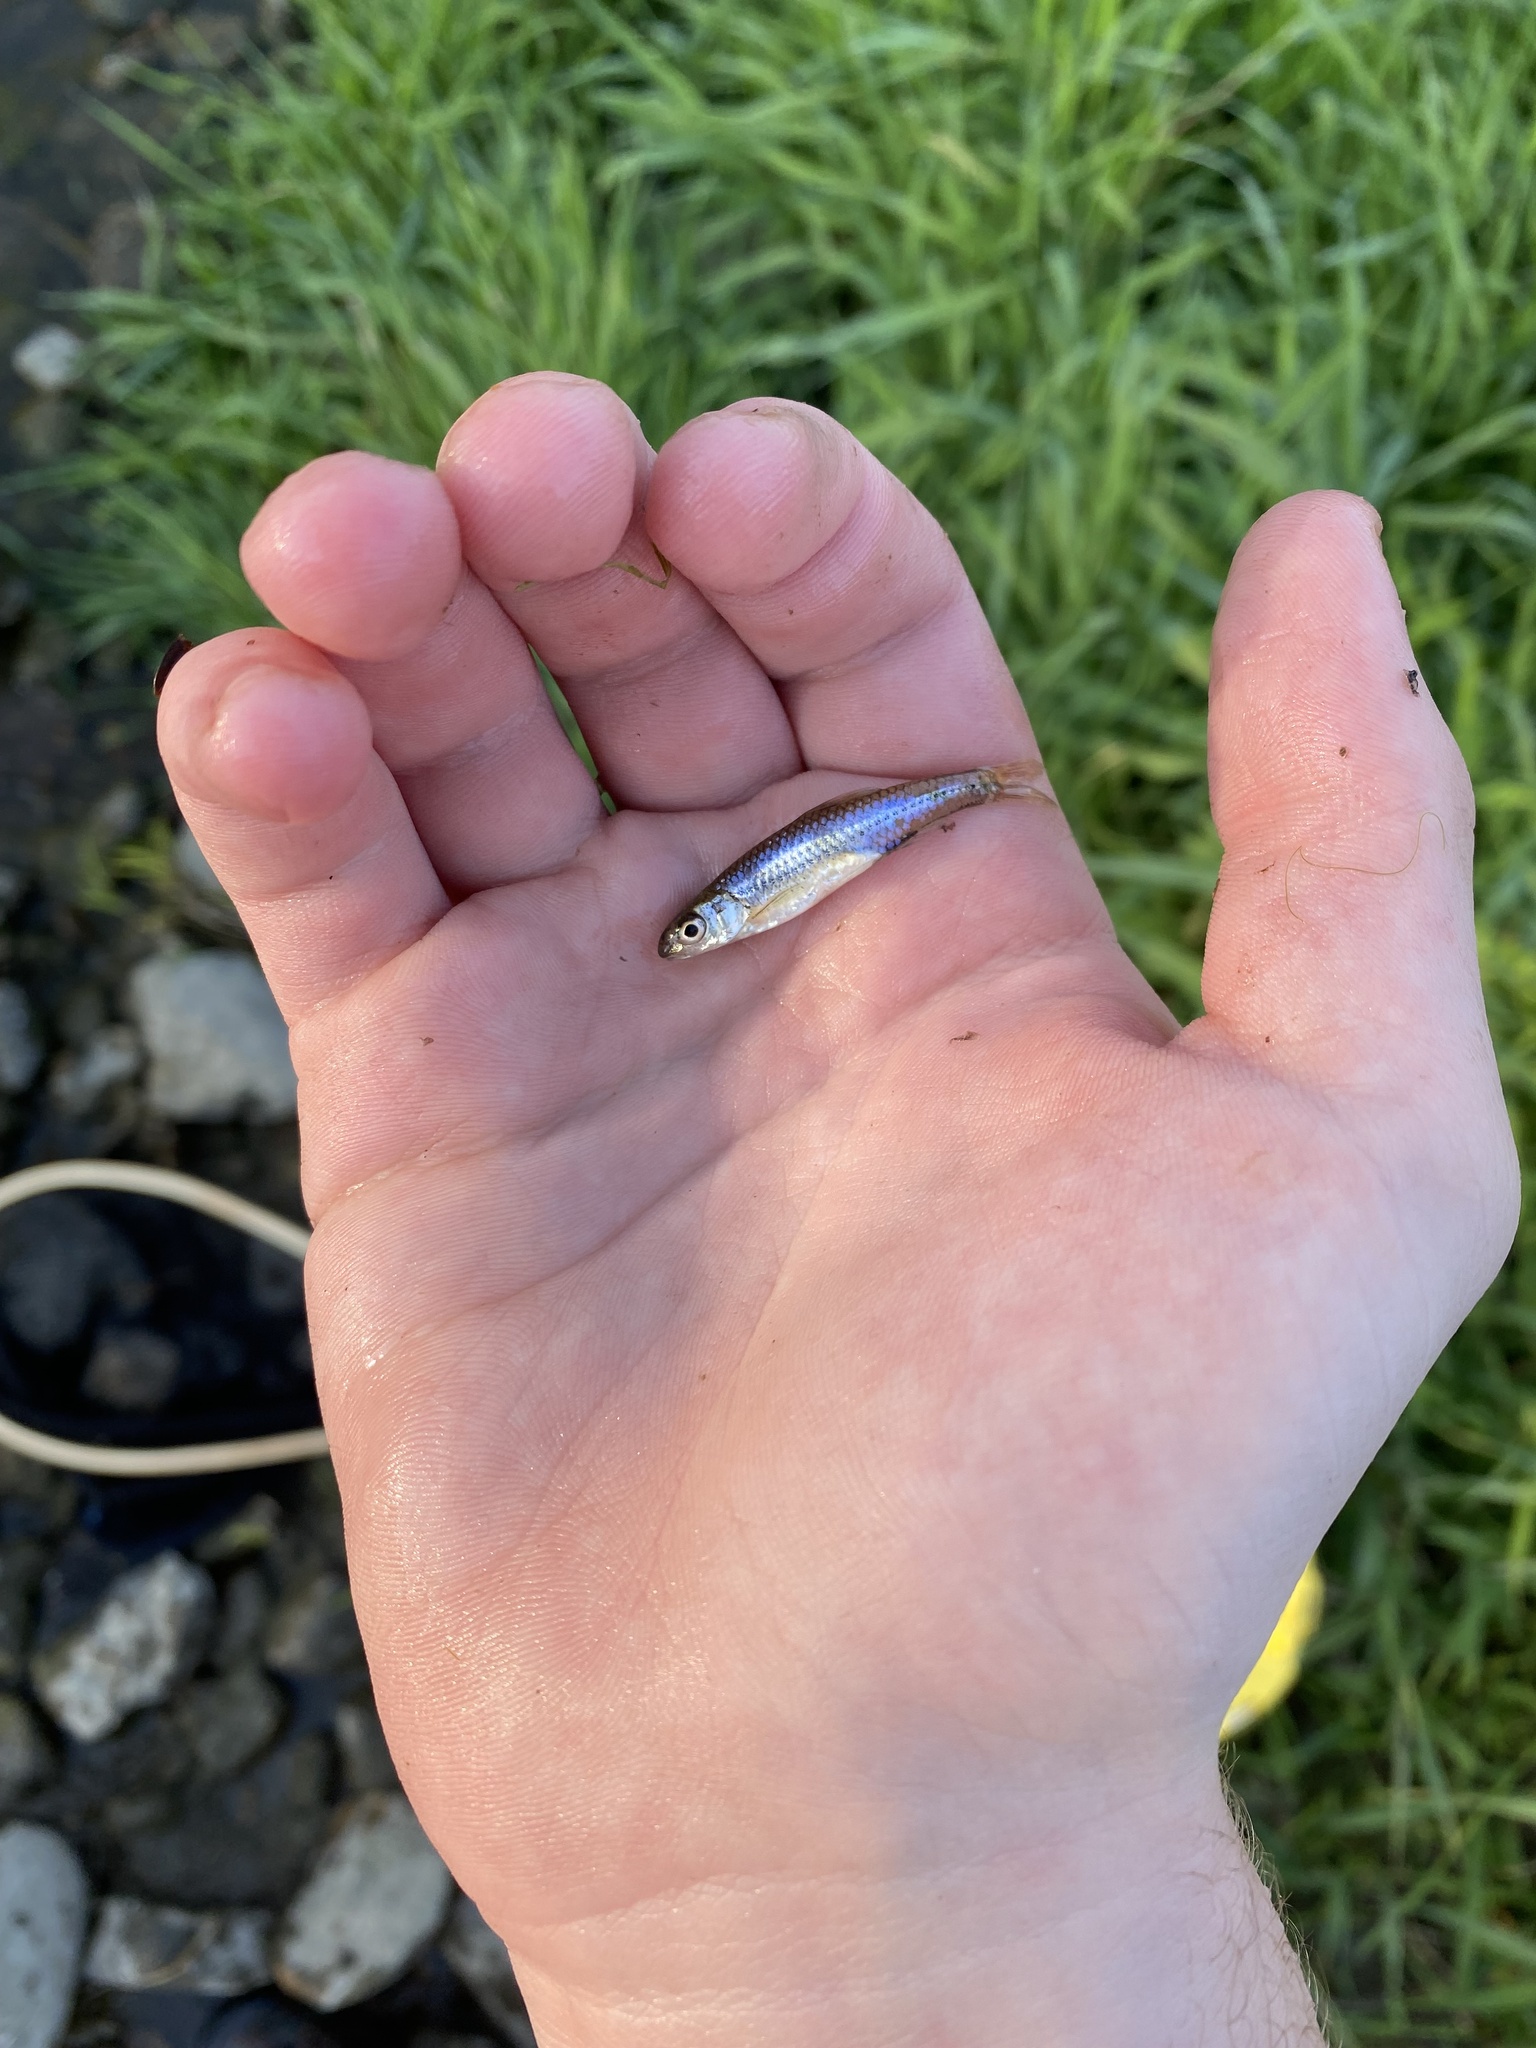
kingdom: Animalia
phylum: Chordata
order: Cypriniformes
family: Cyprinidae
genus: Notropis
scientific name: Notropis
